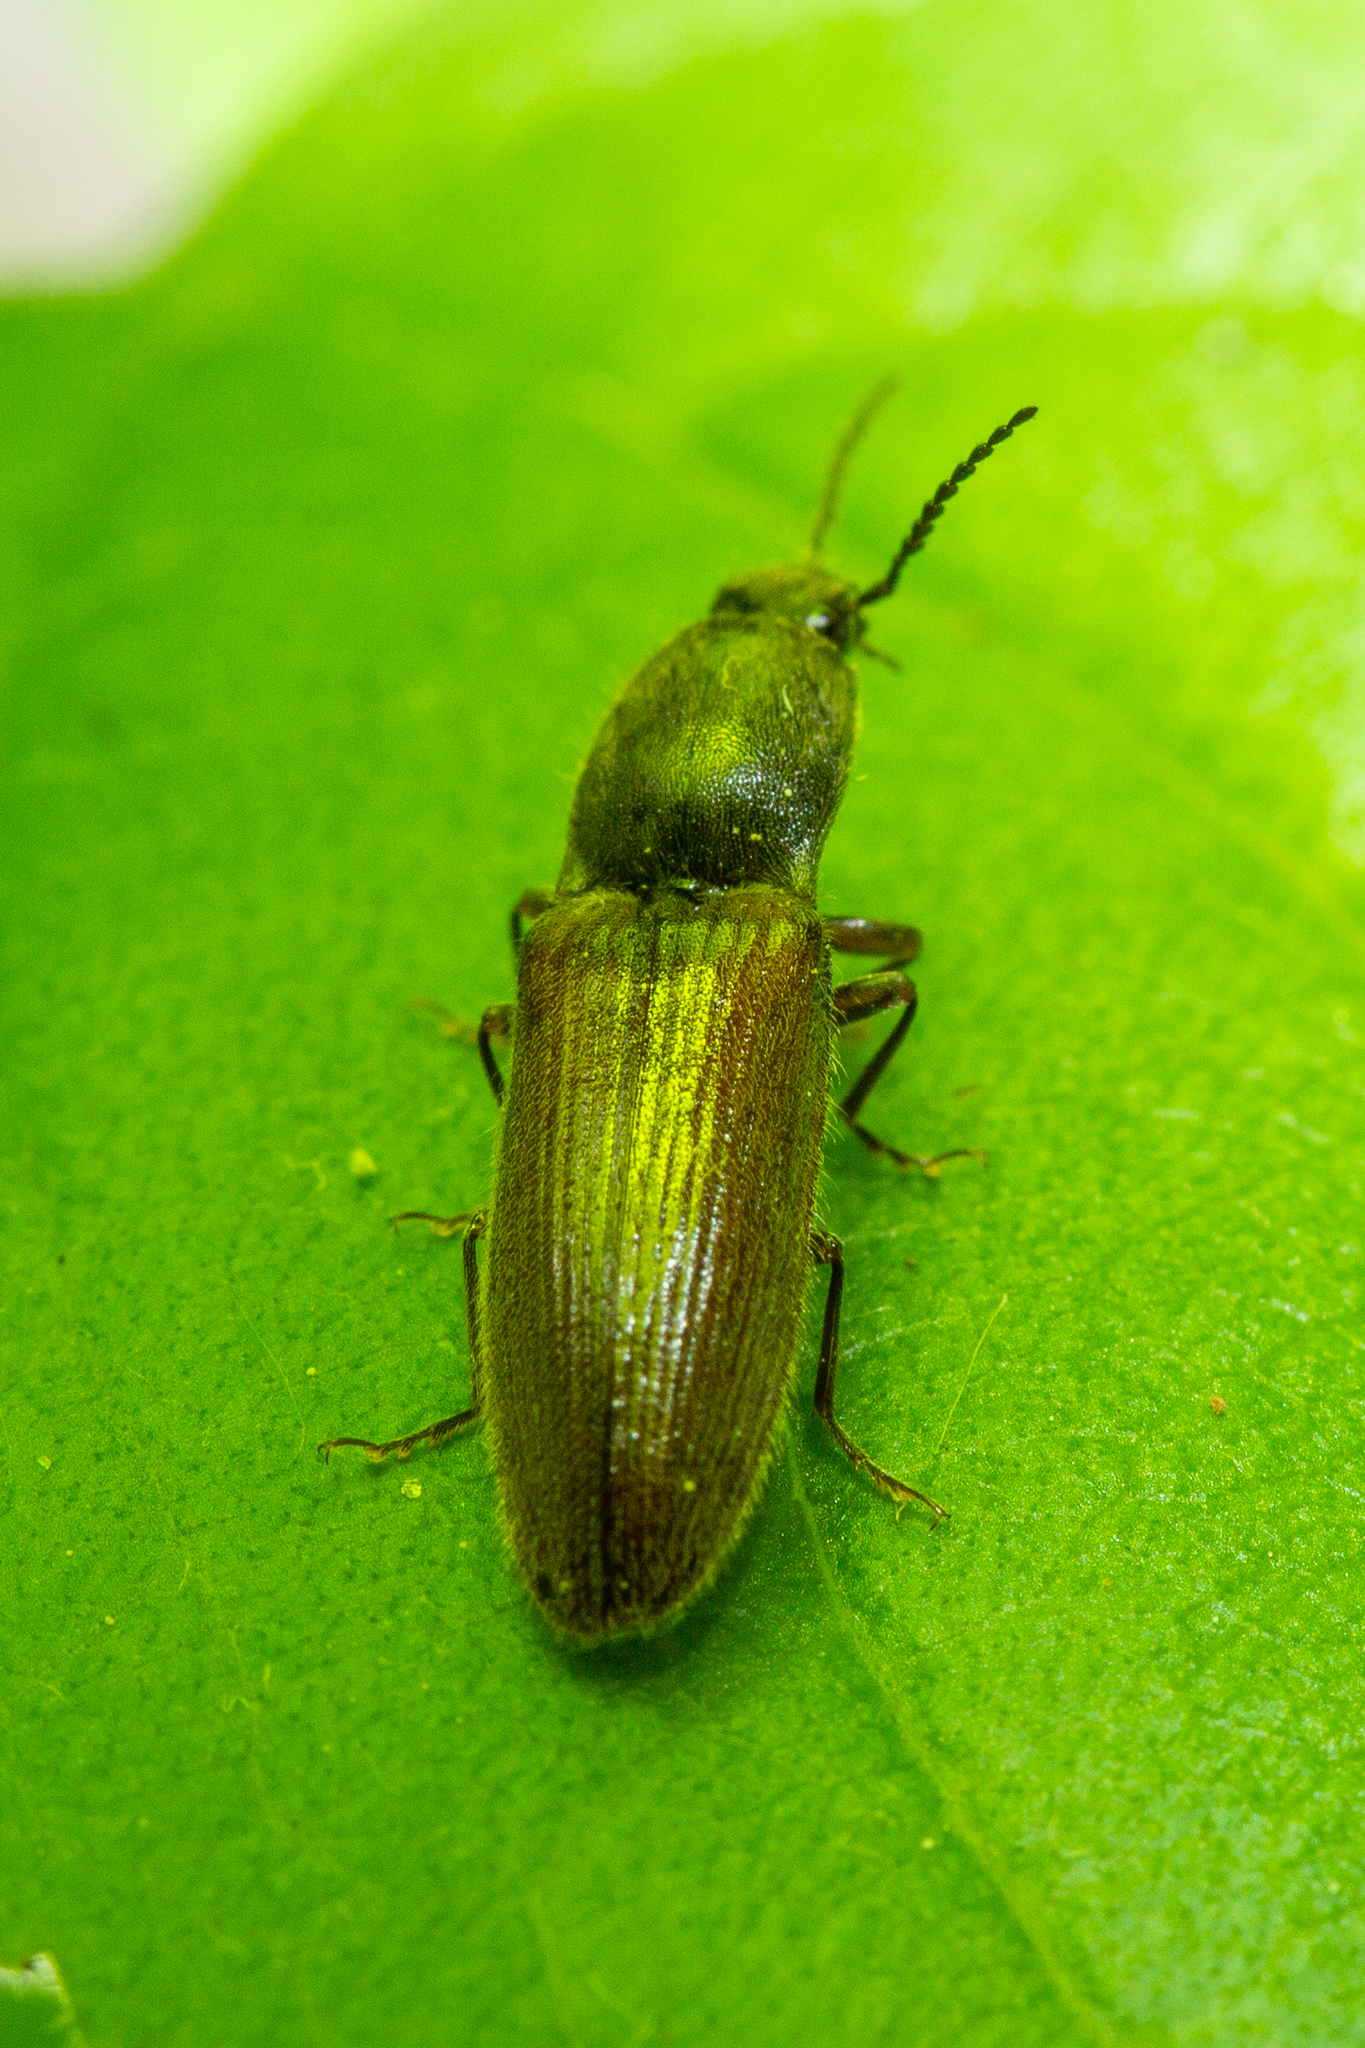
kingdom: Animalia
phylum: Arthropoda
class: Insecta
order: Coleoptera
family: Elateridae
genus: Athous
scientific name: Athous haemorrhoidalis
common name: Red-brown click beetle
